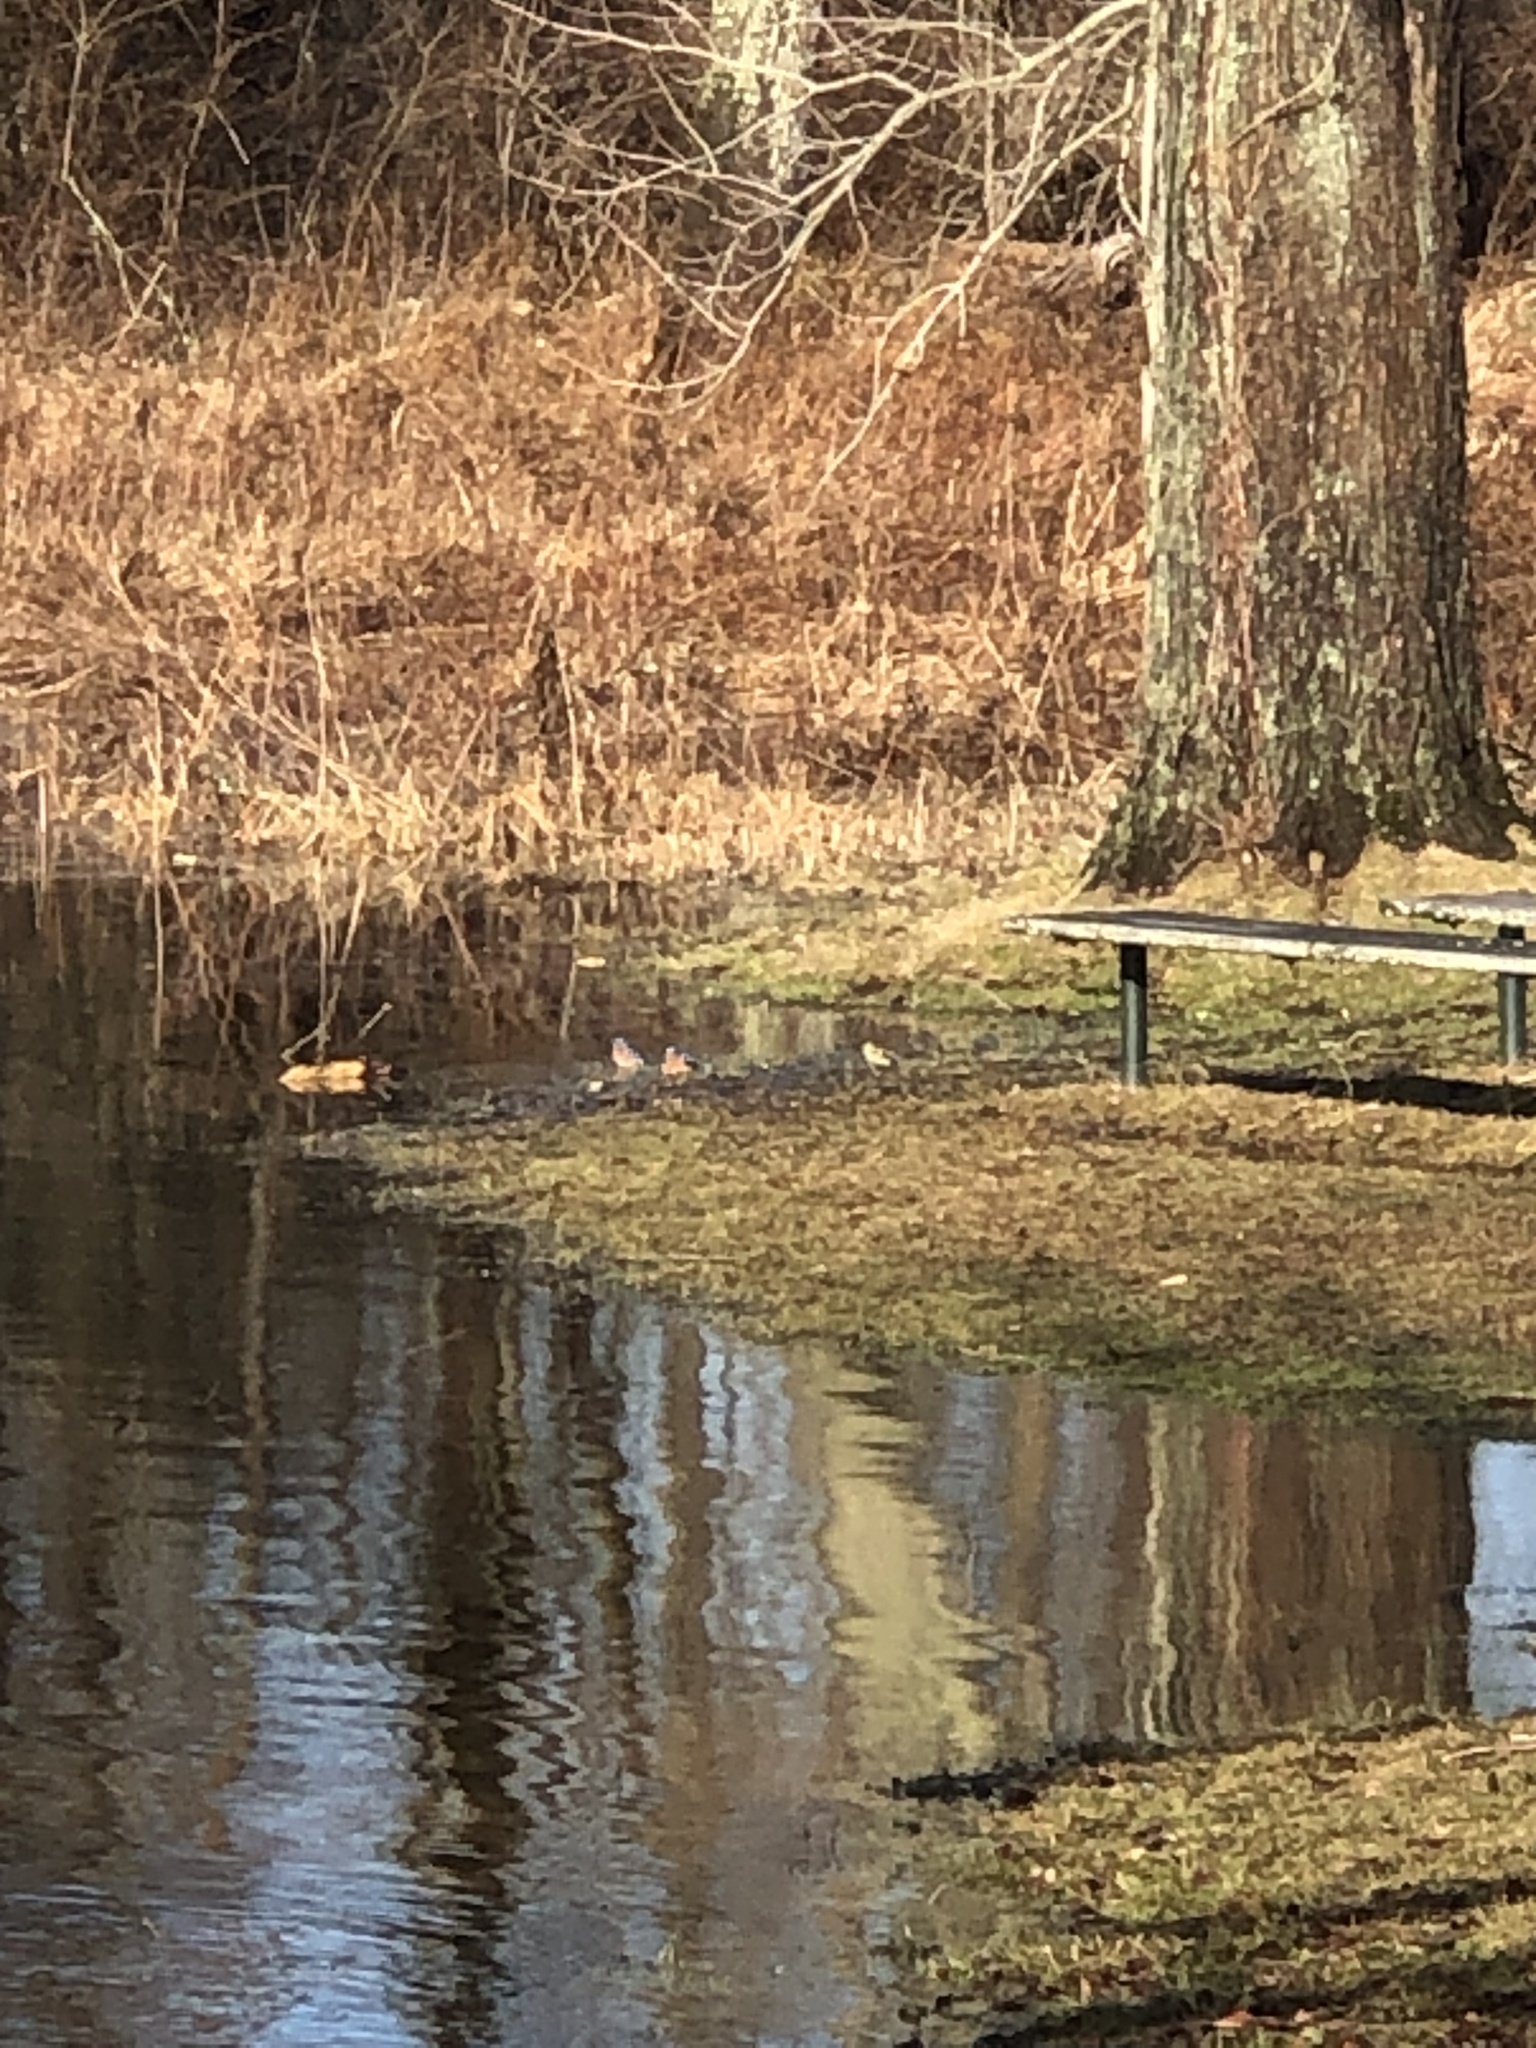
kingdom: Animalia
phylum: Chordata
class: Aves
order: Passeriformes
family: Turdidae
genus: Sialia
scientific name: Sialia sialis
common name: Eastern bluebird
